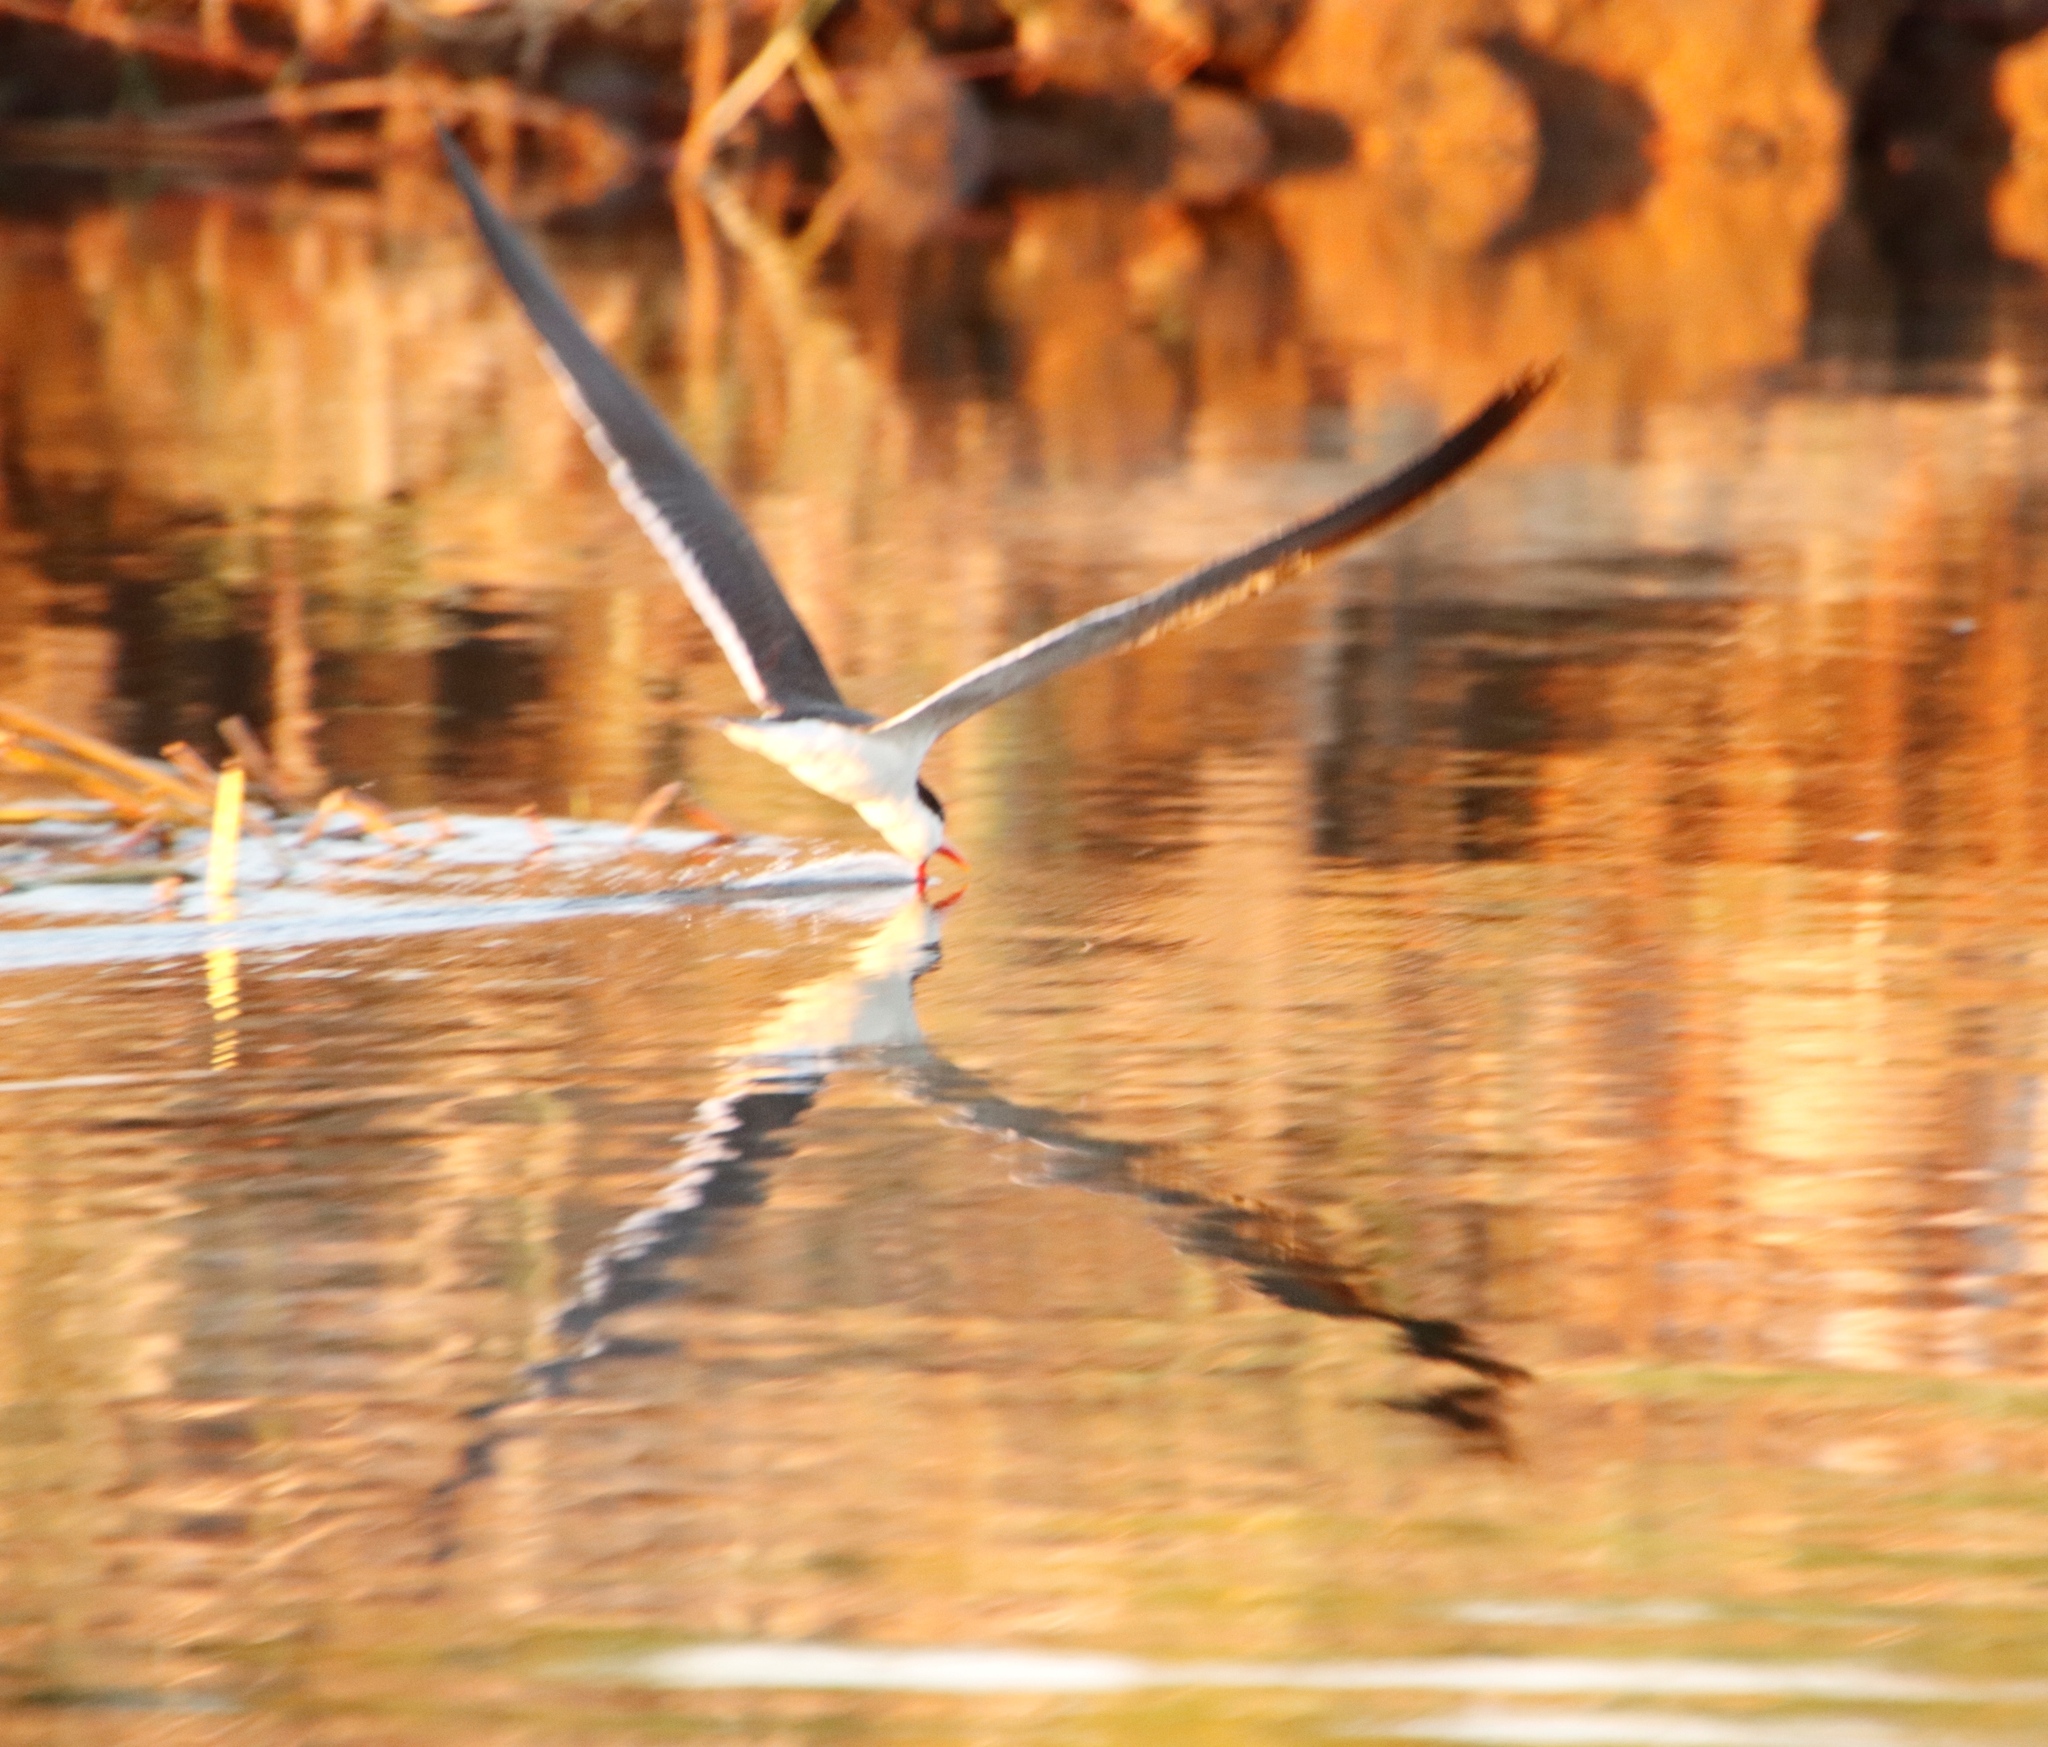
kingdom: Animalia
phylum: Chordata
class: Aves
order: Charadriiformes
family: Laridae
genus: Rynchops
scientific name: Rynchops flavirostris
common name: African skimmer
